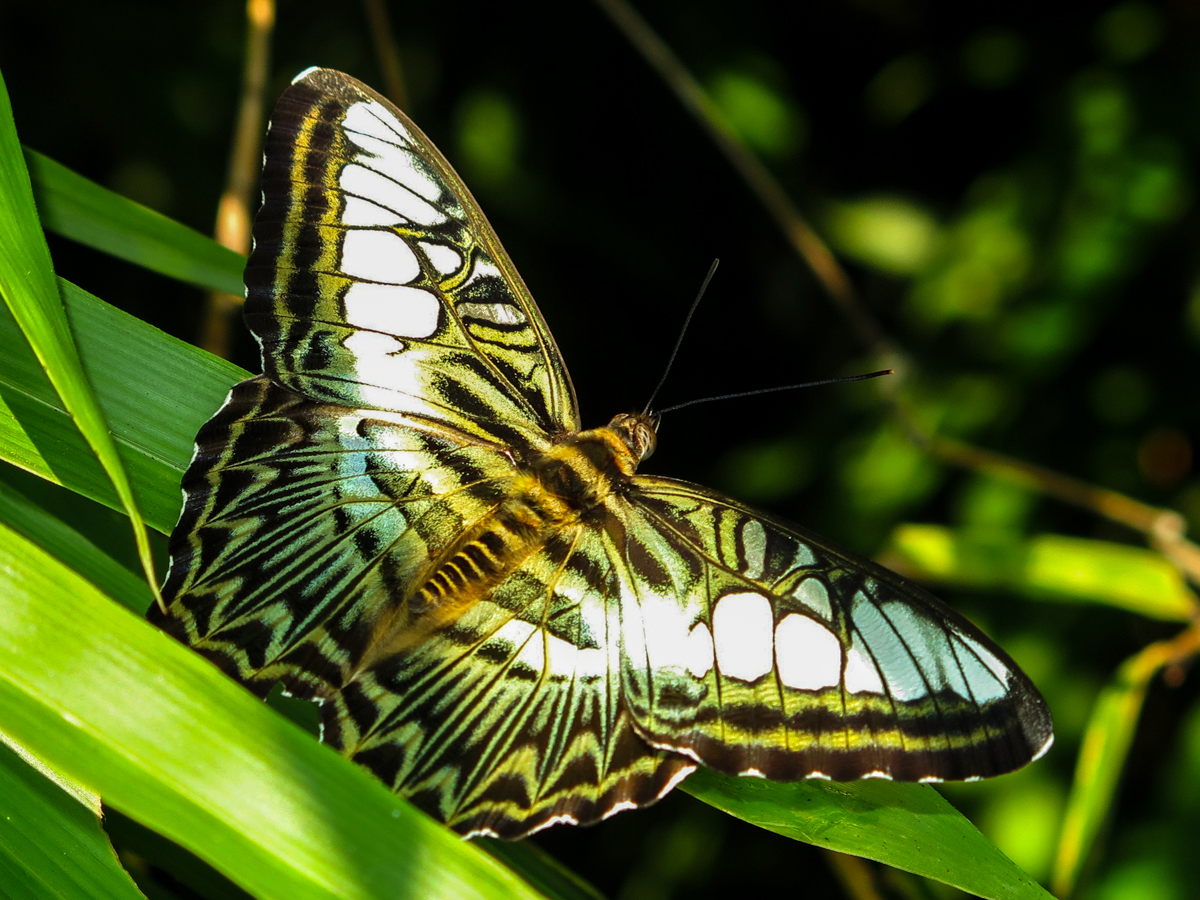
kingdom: Animalia
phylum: Arthropoda
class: Insecta
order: Lepidoptera
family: Nymphalidae
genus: Kallima
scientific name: Kallima sylvia
